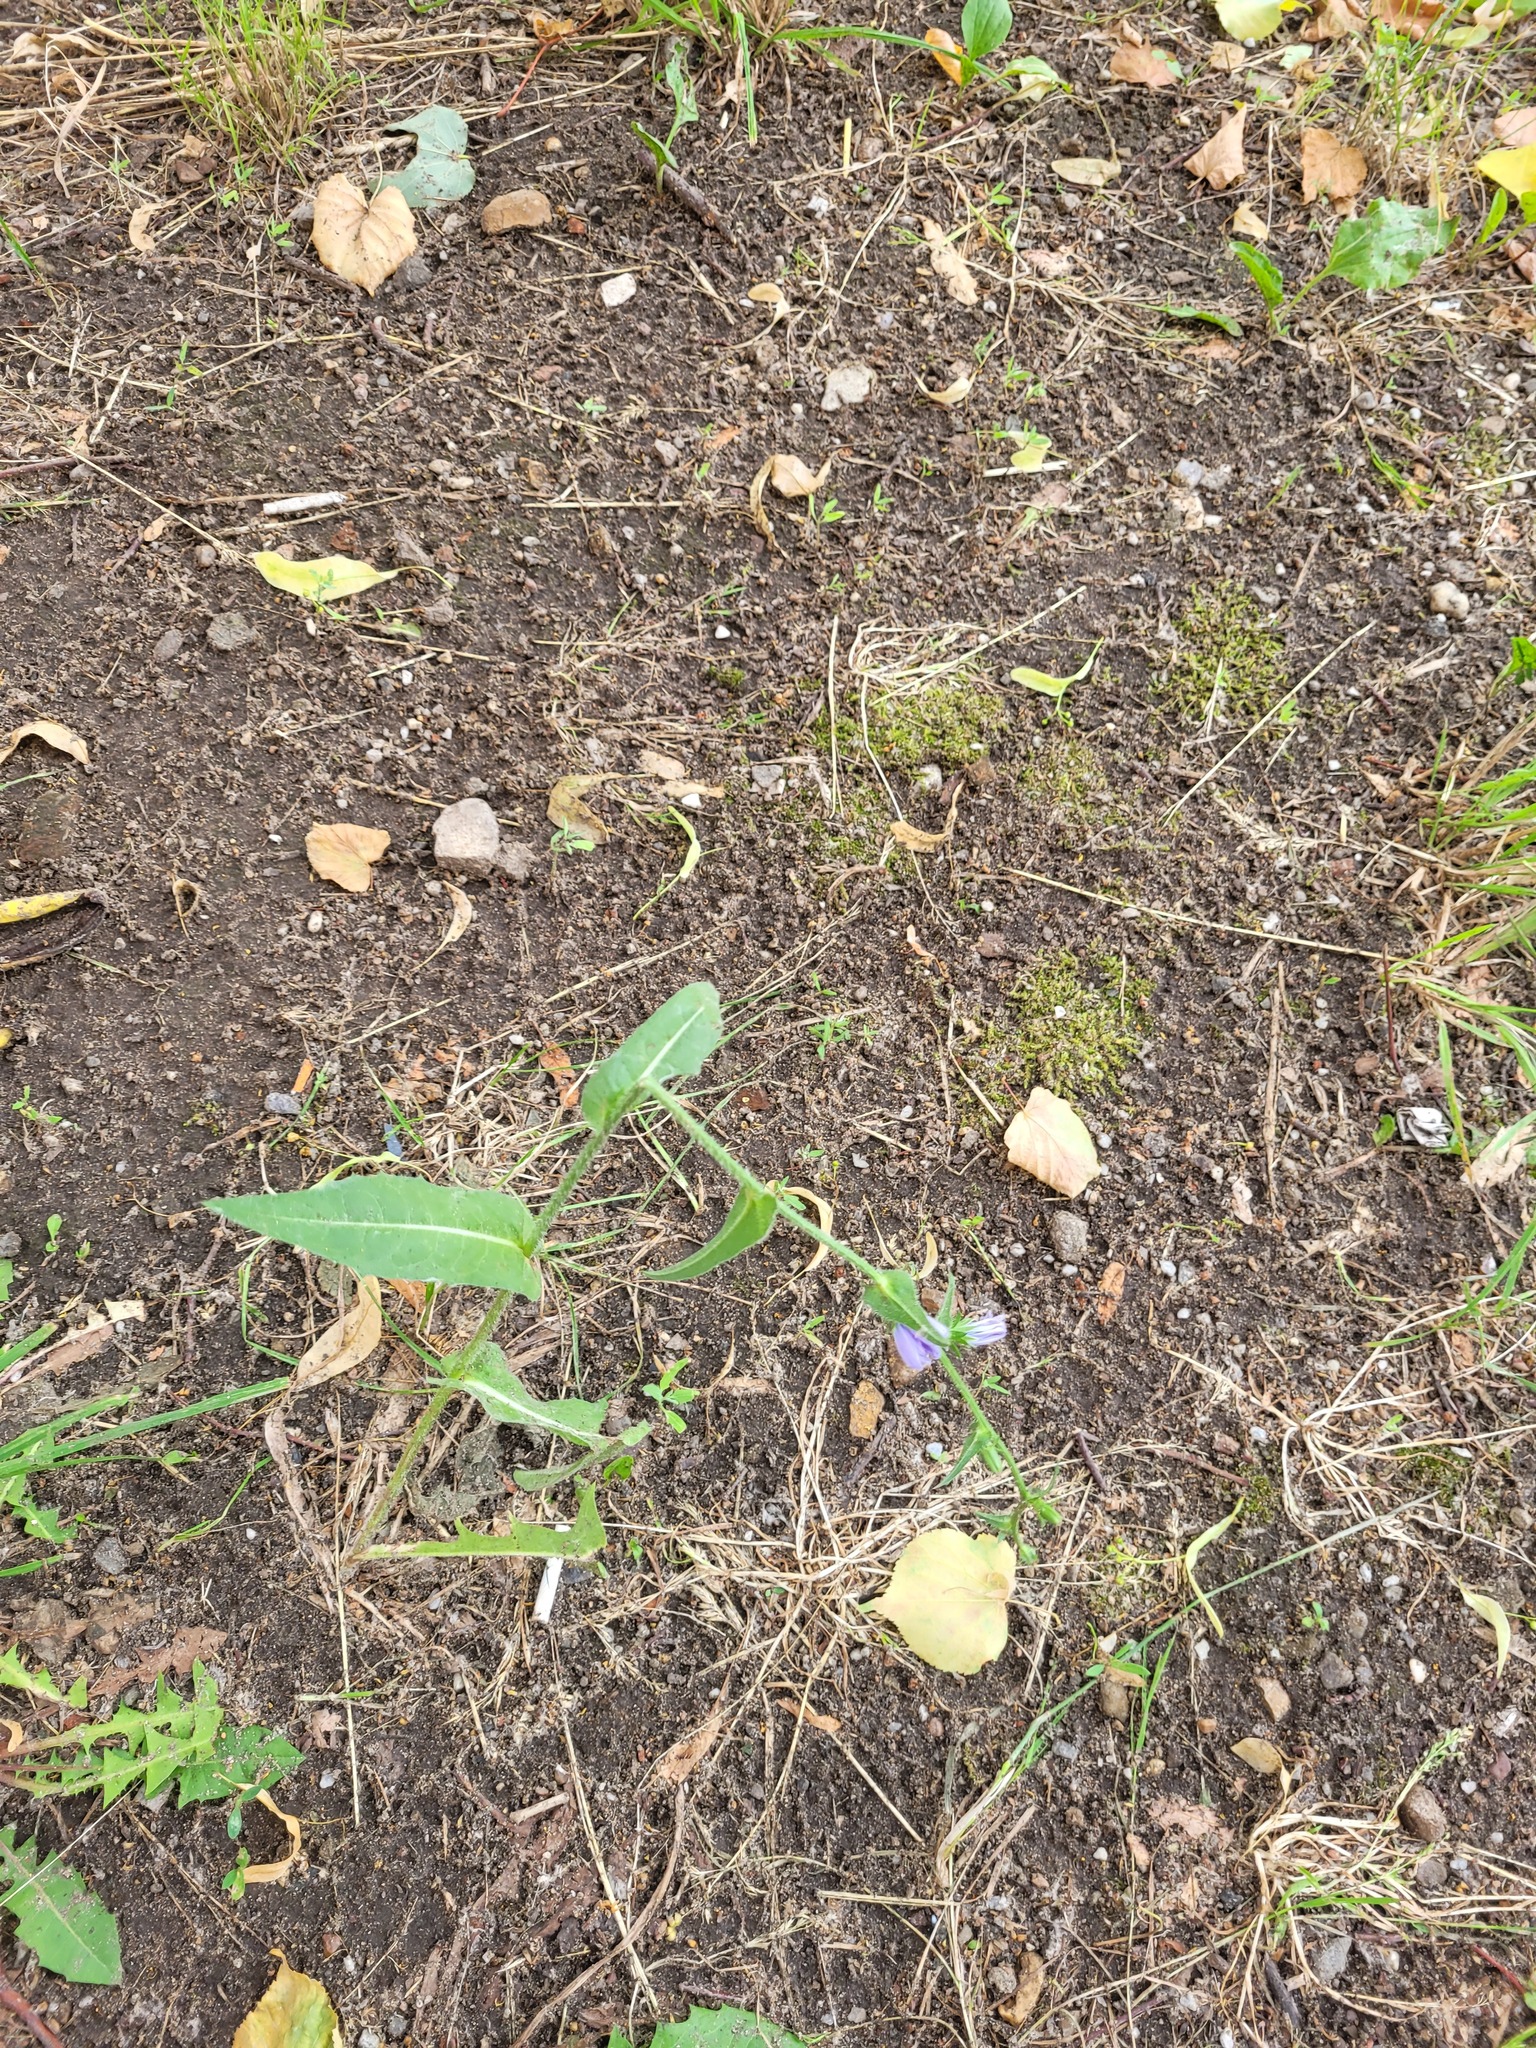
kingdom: Plantae
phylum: Tracheophyta
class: Magnoliopsida
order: Asterales
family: Asteraceae
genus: Cichorium
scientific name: Cichorium intybus
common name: Chicory
